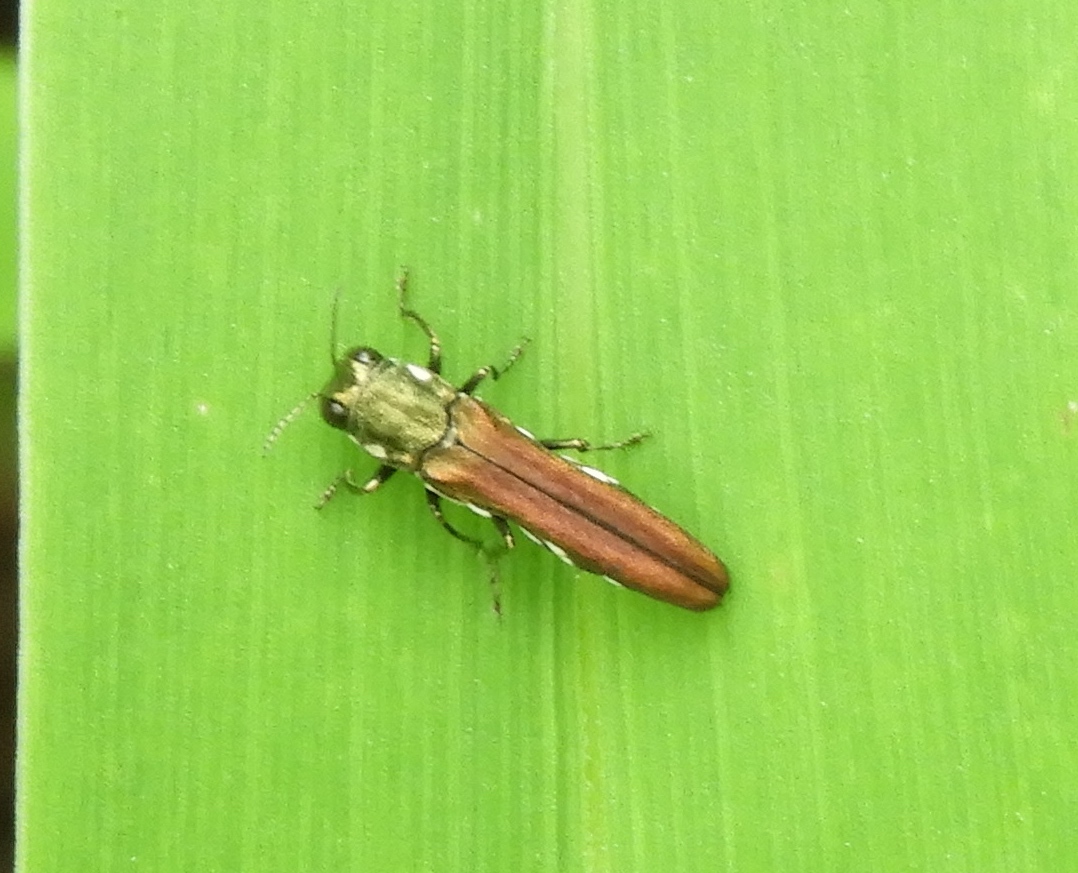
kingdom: Animalia
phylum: Arthropoda
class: Insecta
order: Coleoptera
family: Buprestidae
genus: Agrilus
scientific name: Agrilus
